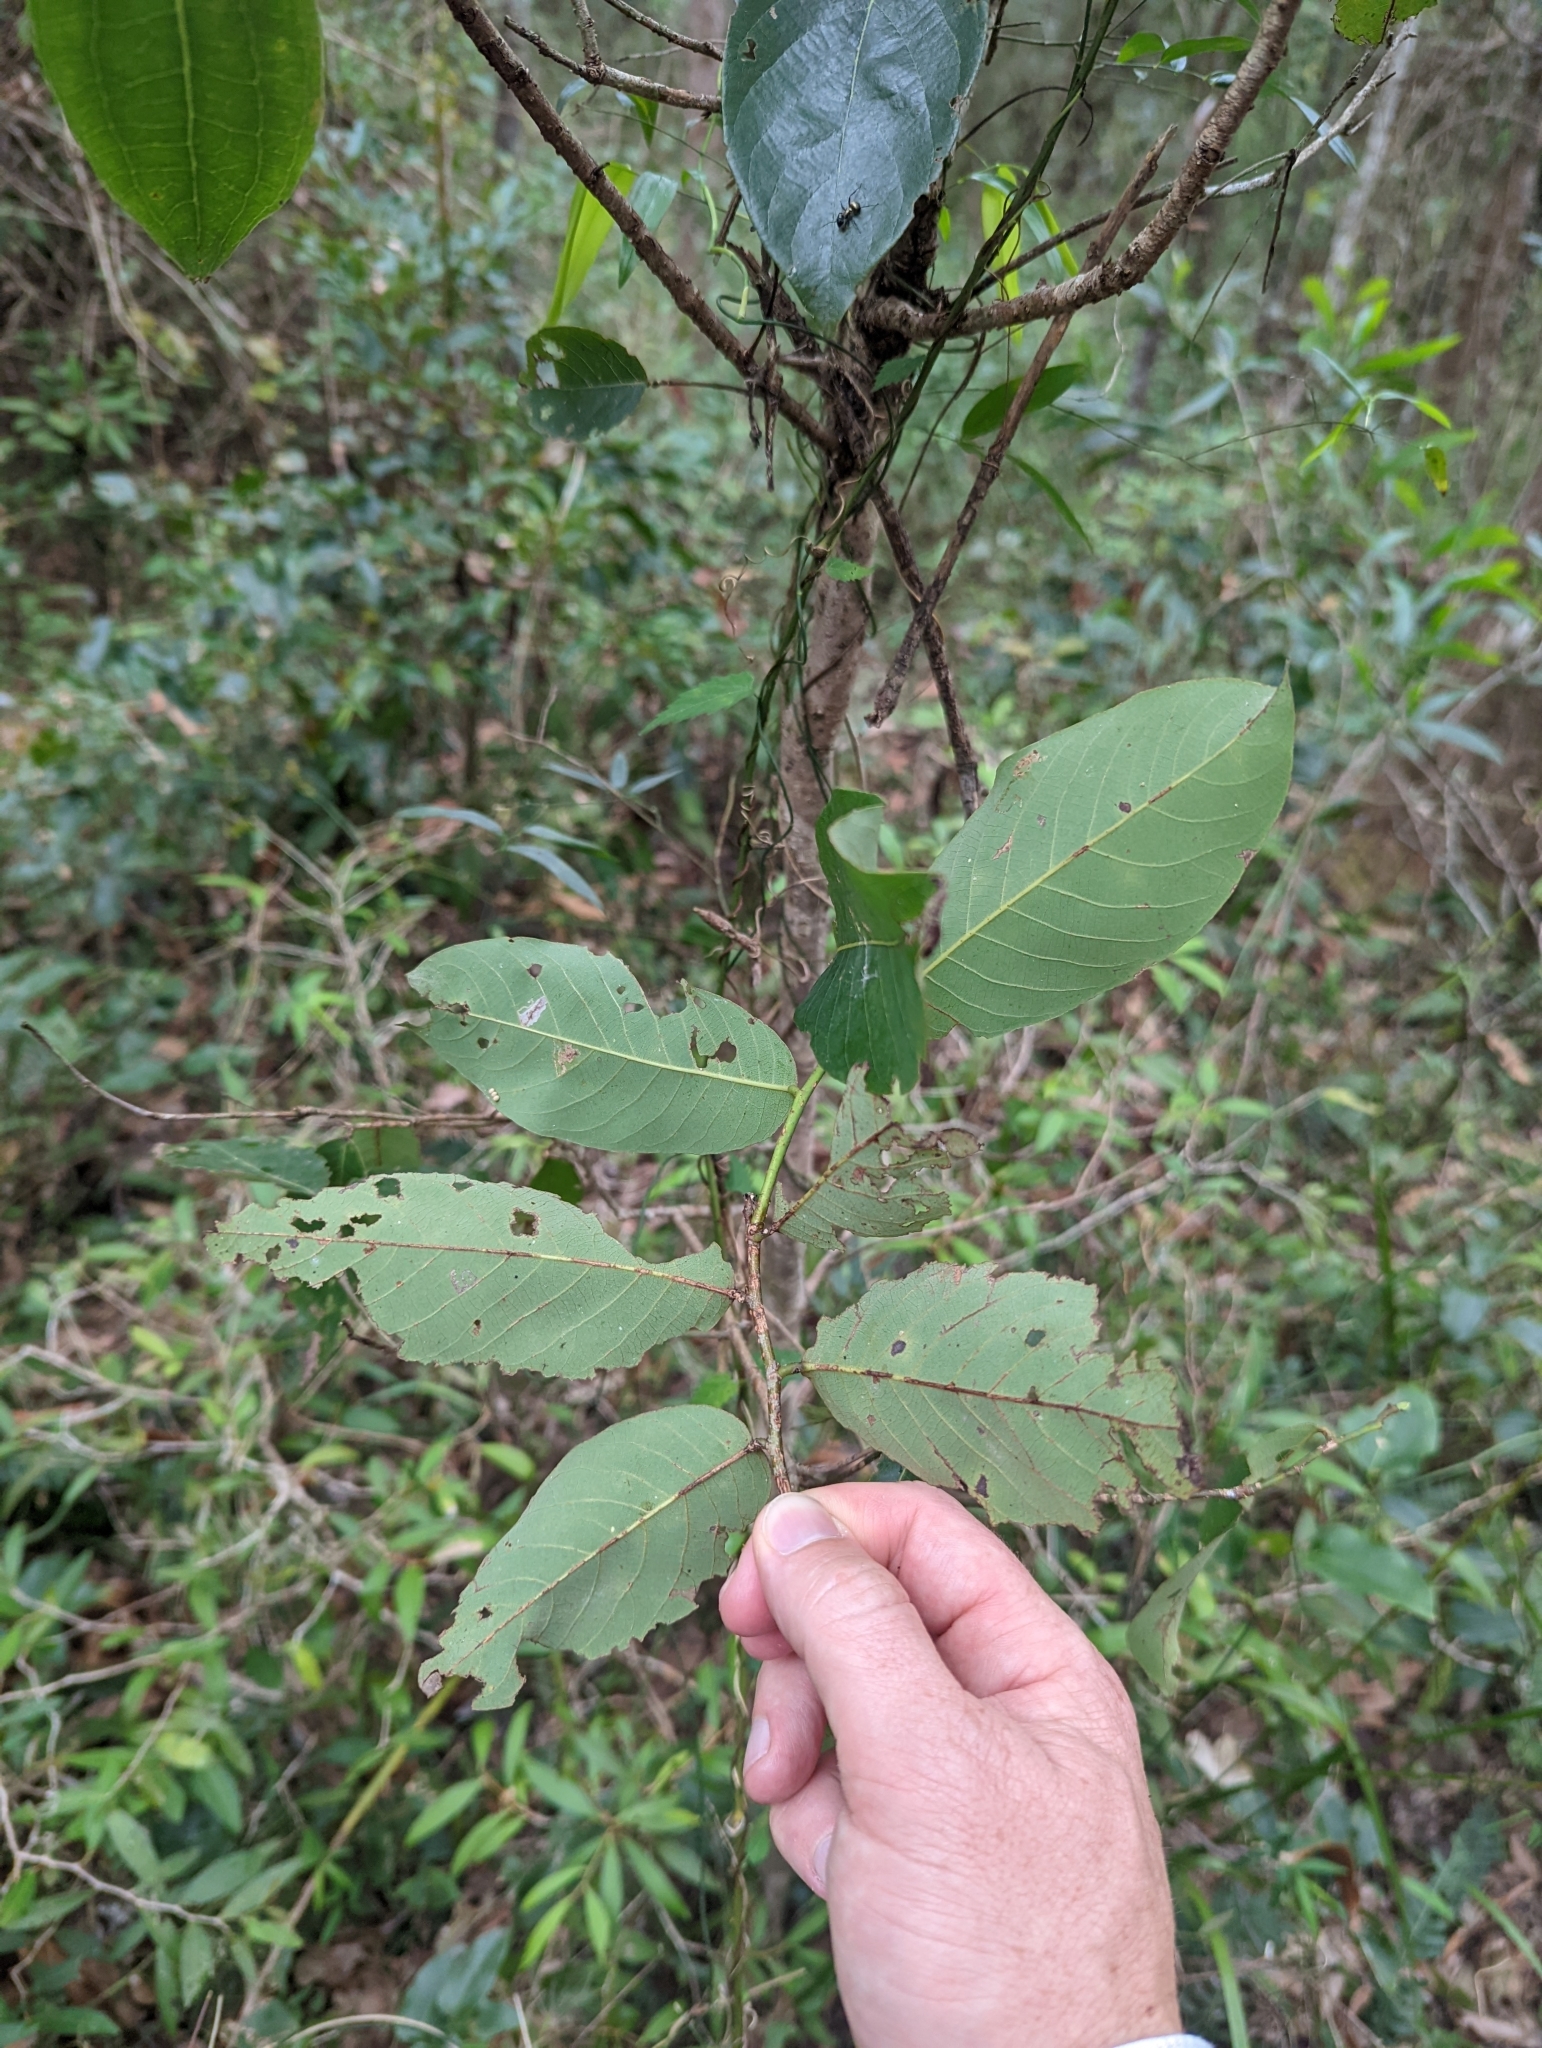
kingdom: Plantae
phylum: Tracheophyta
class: Magnoliopsida
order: Malpighiales
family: Phyllanthaceae
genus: Bridelia
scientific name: Bridelia exaltata
